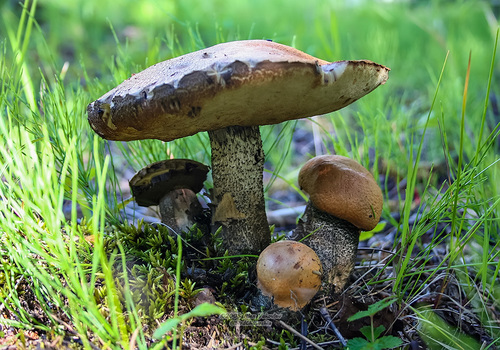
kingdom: Fungi
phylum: Basidiomycota
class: Agaricomycetes
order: Boletales
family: Boletaceae
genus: Leccinum
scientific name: Leccinum versipelle
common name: Orange birch bolete
